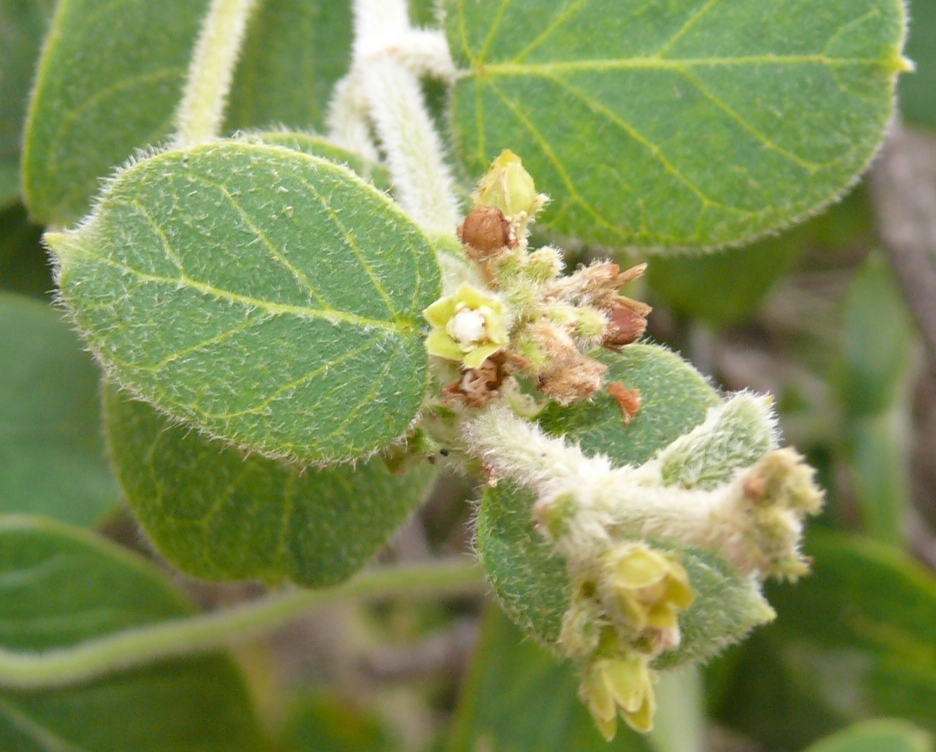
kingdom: Plantae
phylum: Tracheophyta
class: Magnoliopsida
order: Gentianales
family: Apocynaceae
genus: Cynanchum
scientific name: Cynanchum obtusifolium
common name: Monkey-rope
